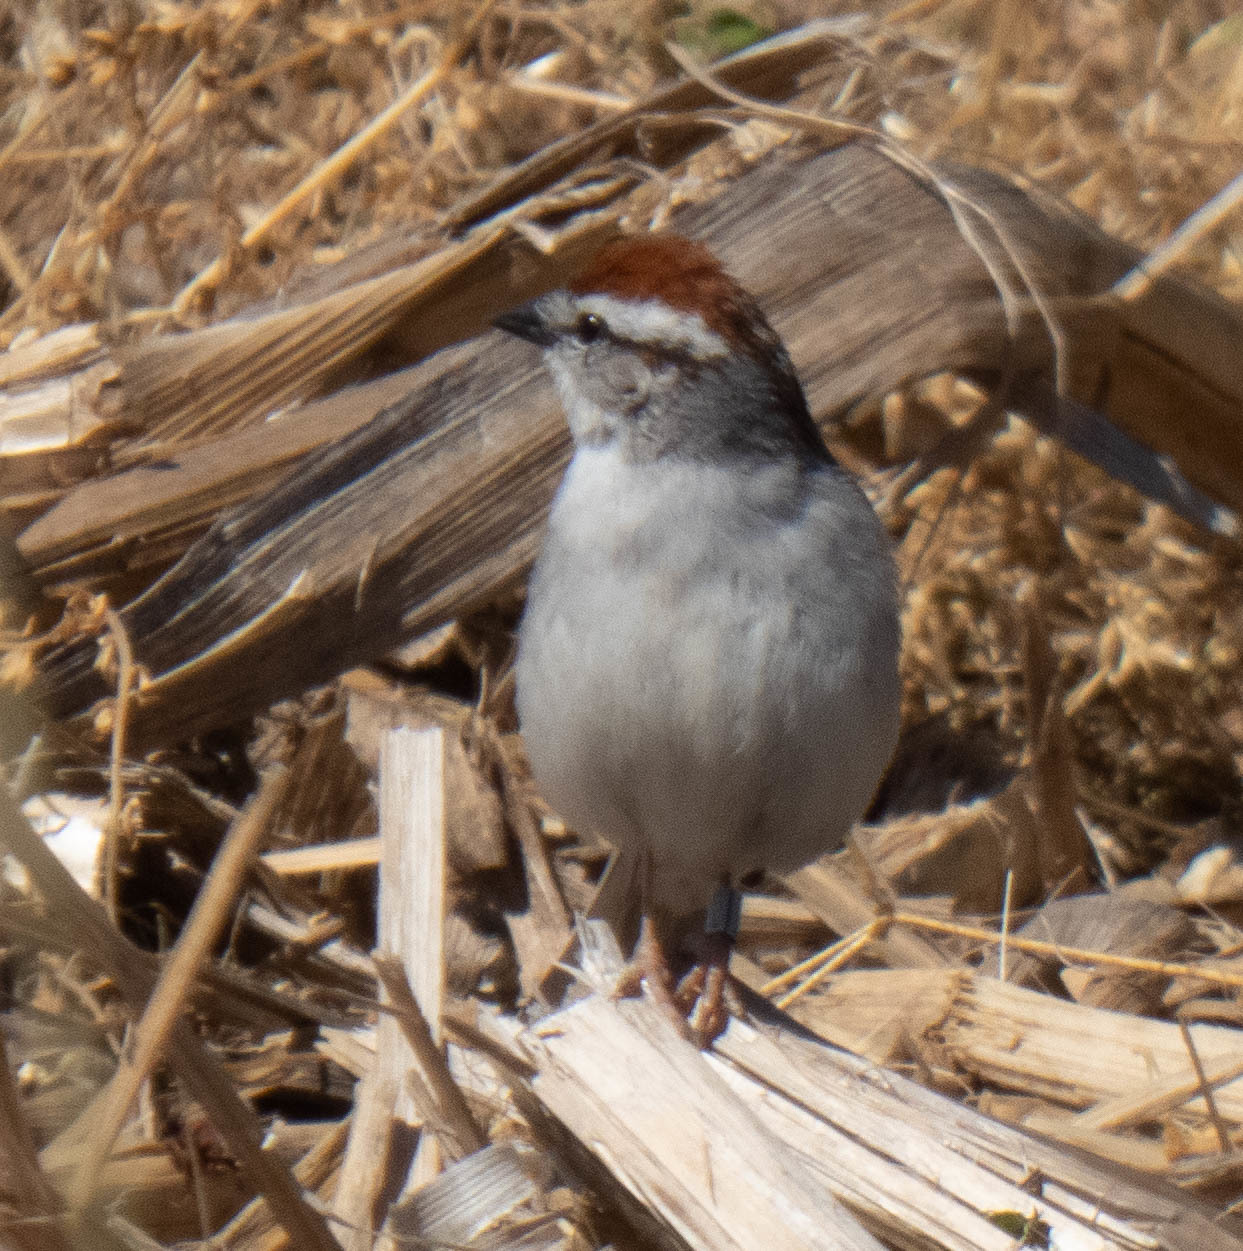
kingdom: Animalia
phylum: Chordata
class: Aves
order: Passeriformes
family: Passerellidae
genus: Spizella
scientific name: Spizella passerina
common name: Chipping sparrow
